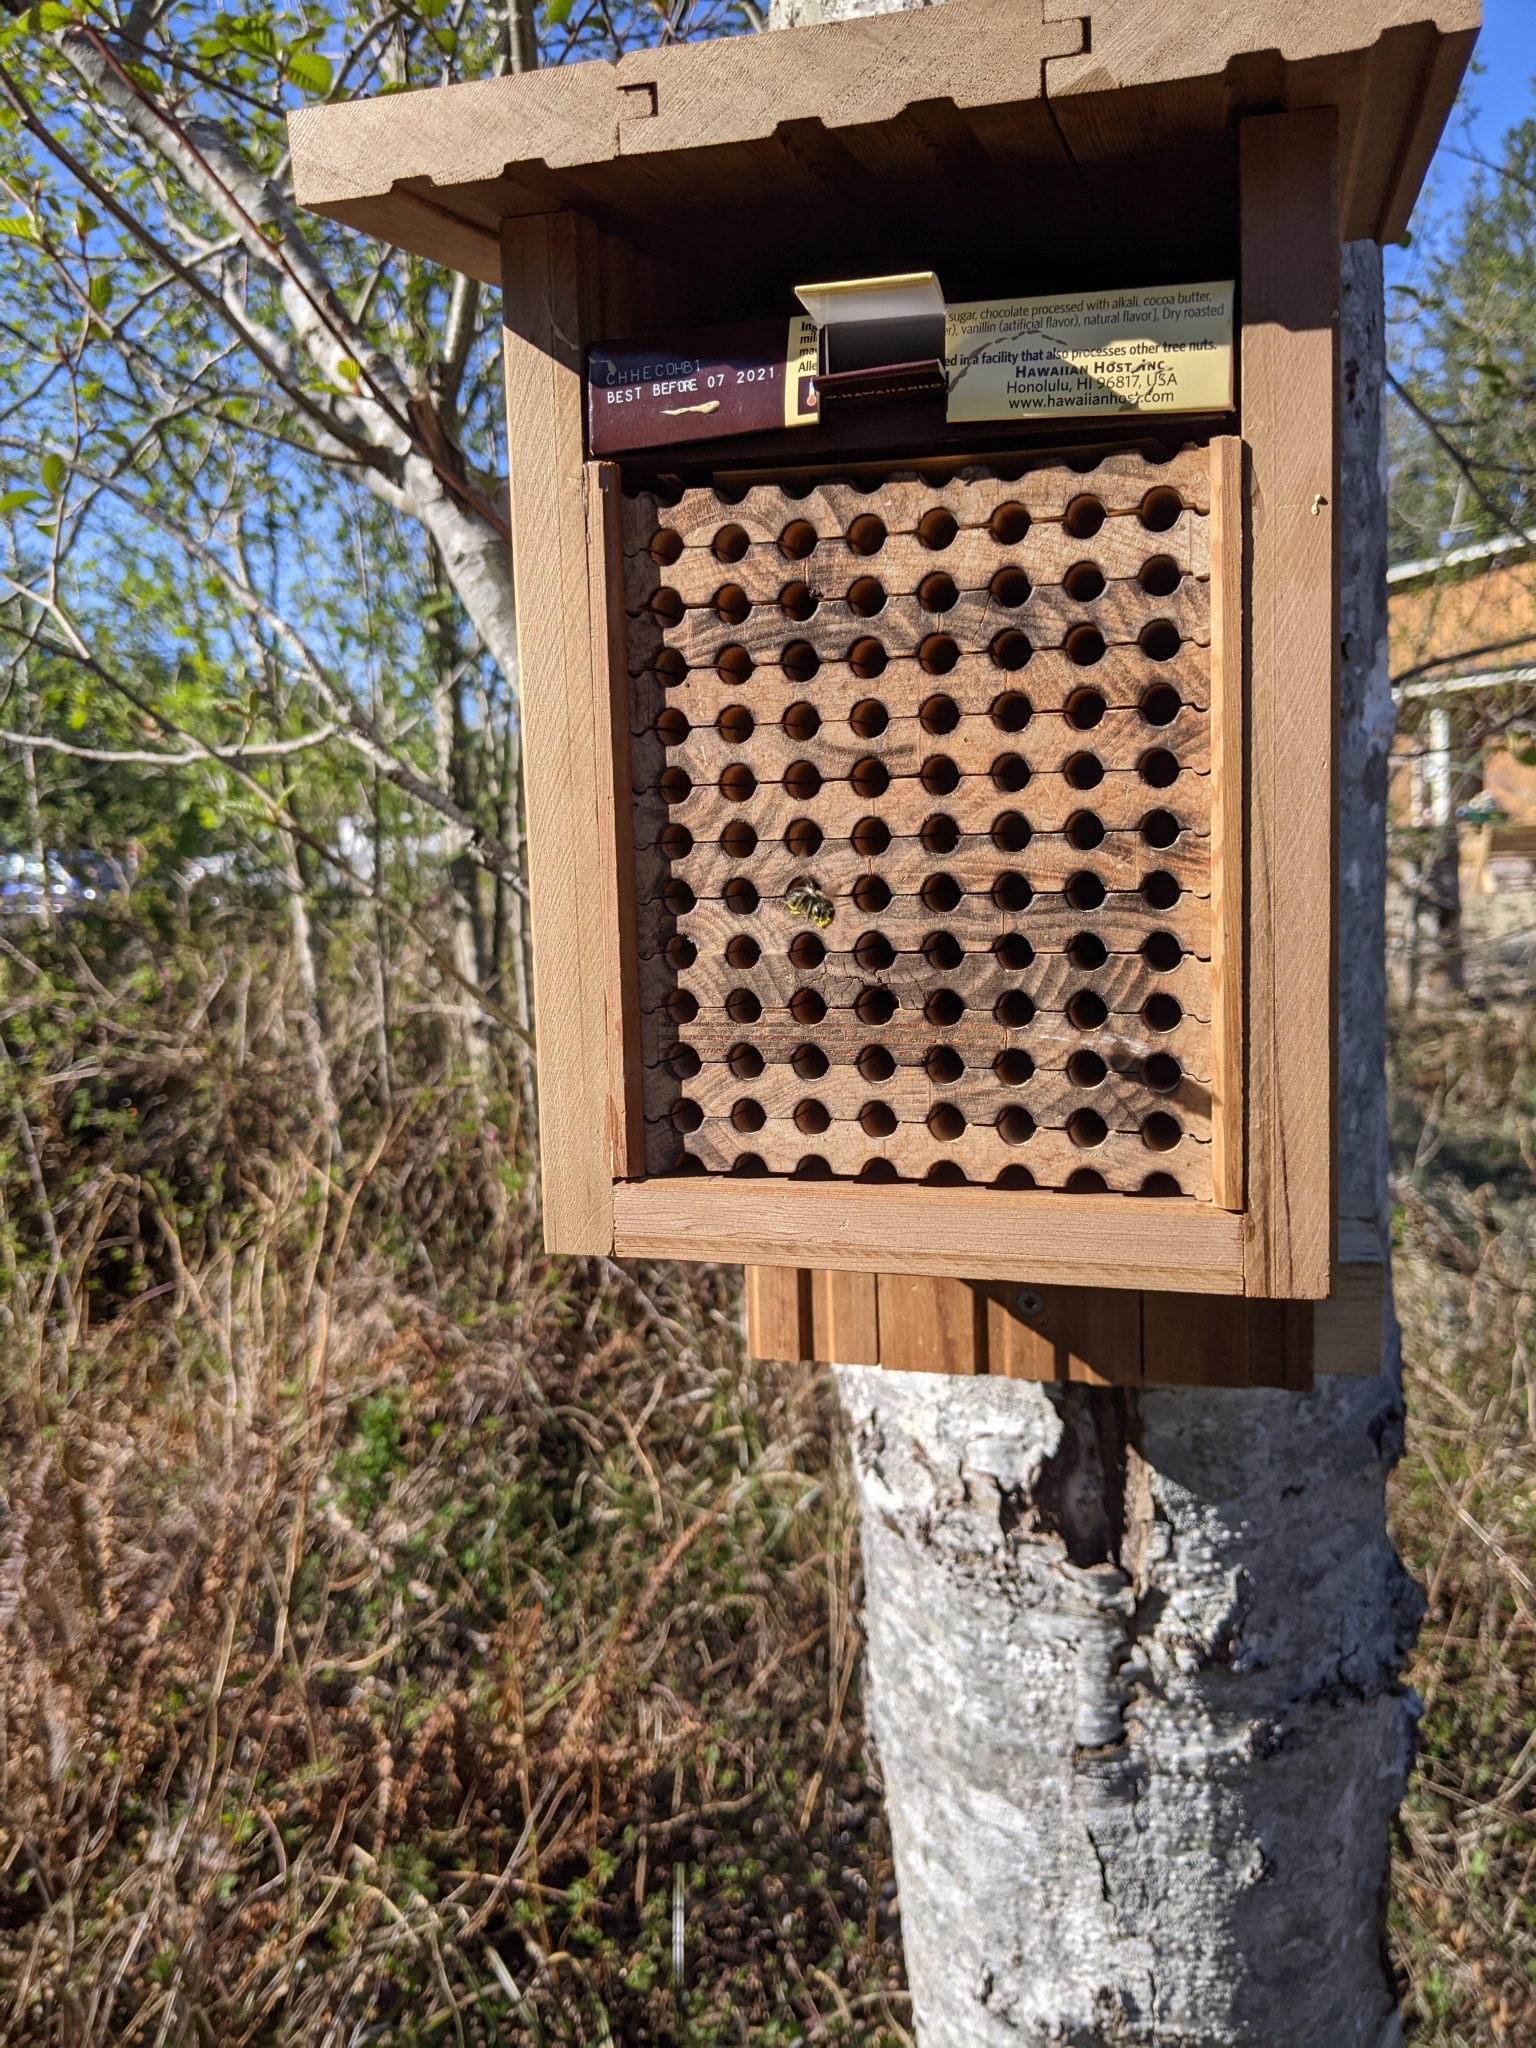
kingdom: Animalia
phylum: Arthropoda
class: Insecta
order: Hymenoptera
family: Megachilidae
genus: Osmia
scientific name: Osmia lignaria
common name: Blue orchard bee
